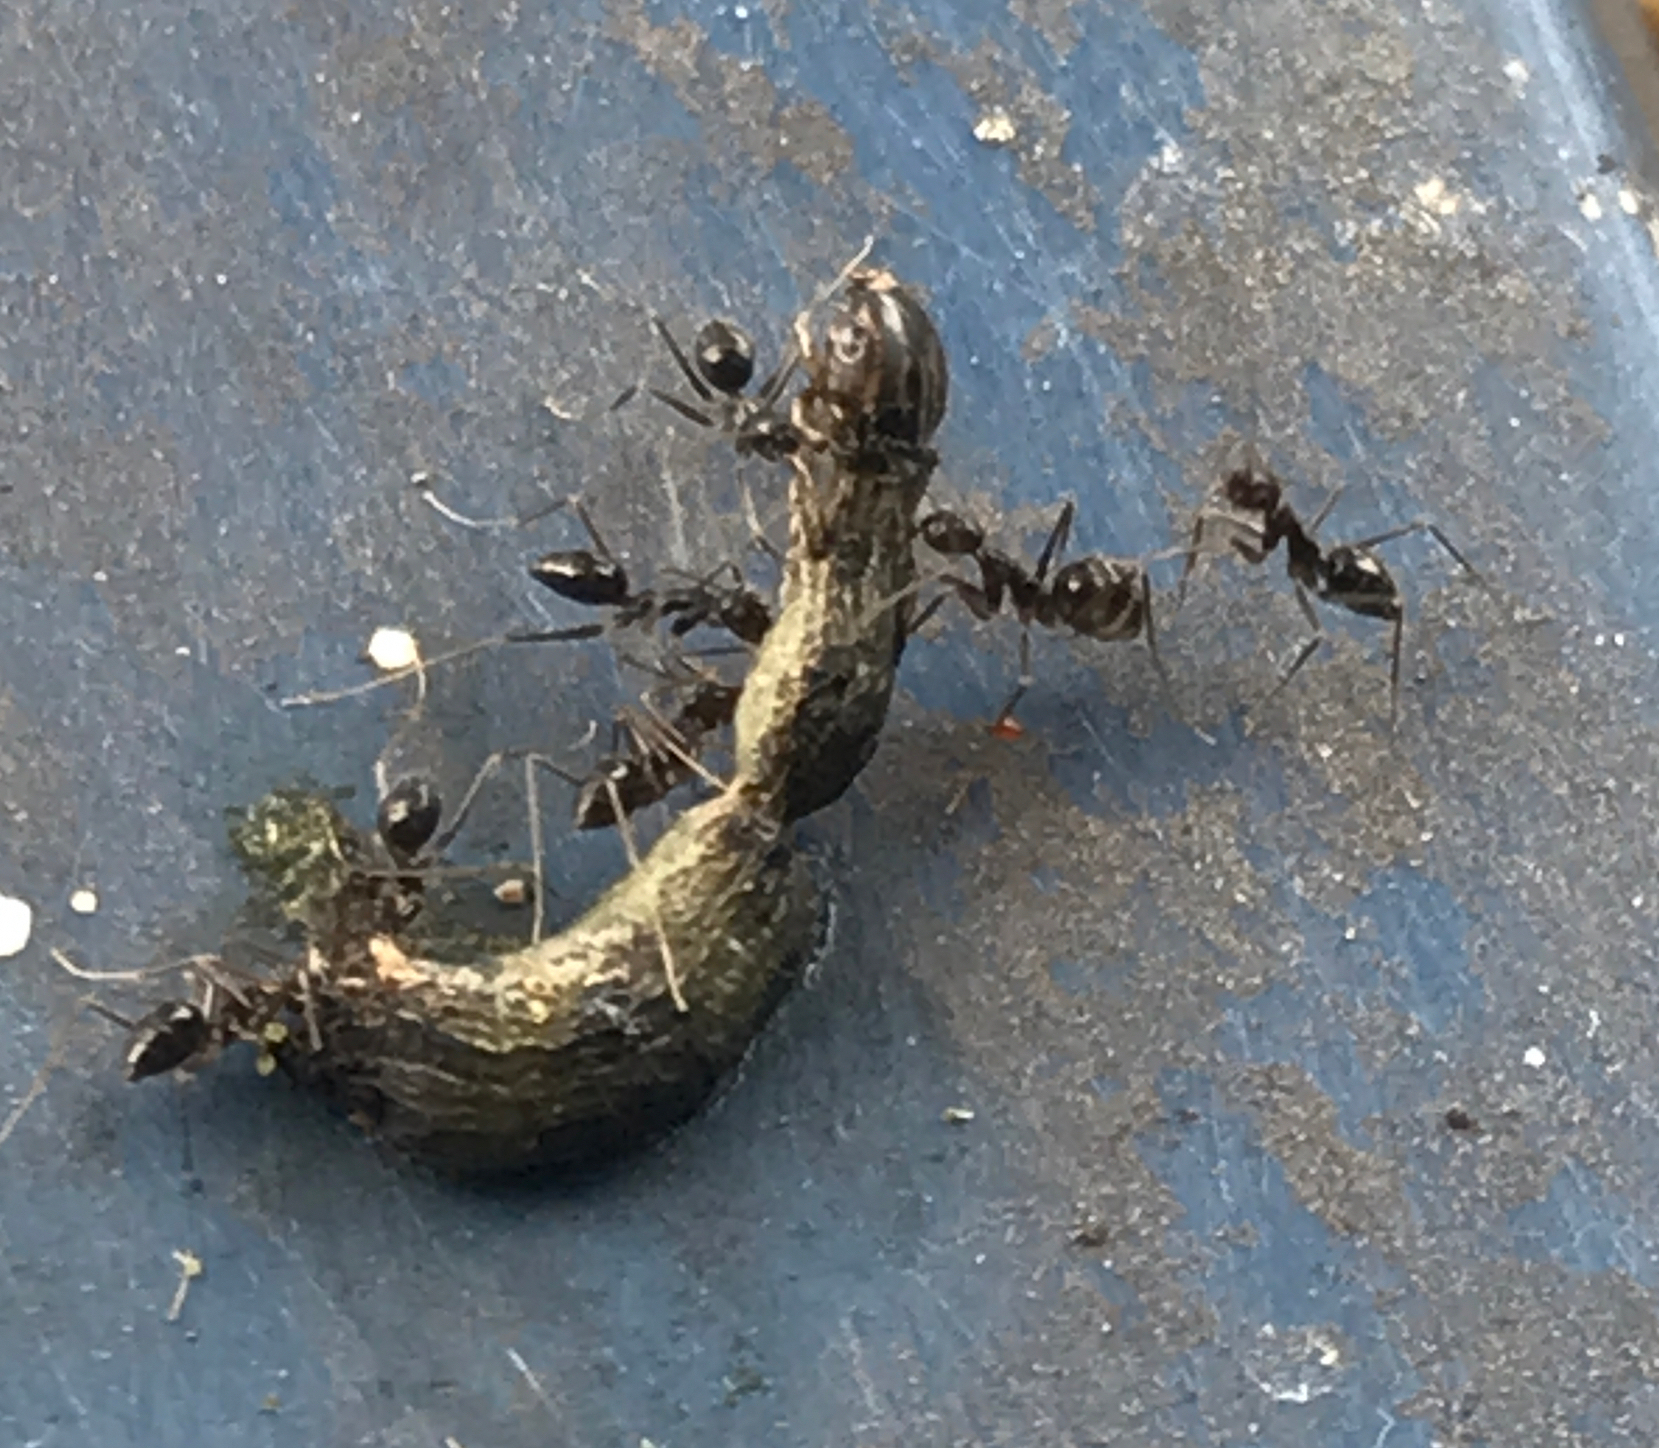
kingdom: Animalia
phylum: Arthropoda
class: Insecta
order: Hymenoptera
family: Formicidae
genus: Paratrechina
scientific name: Paratrechina longicornis
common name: Longhorned crazy ant
